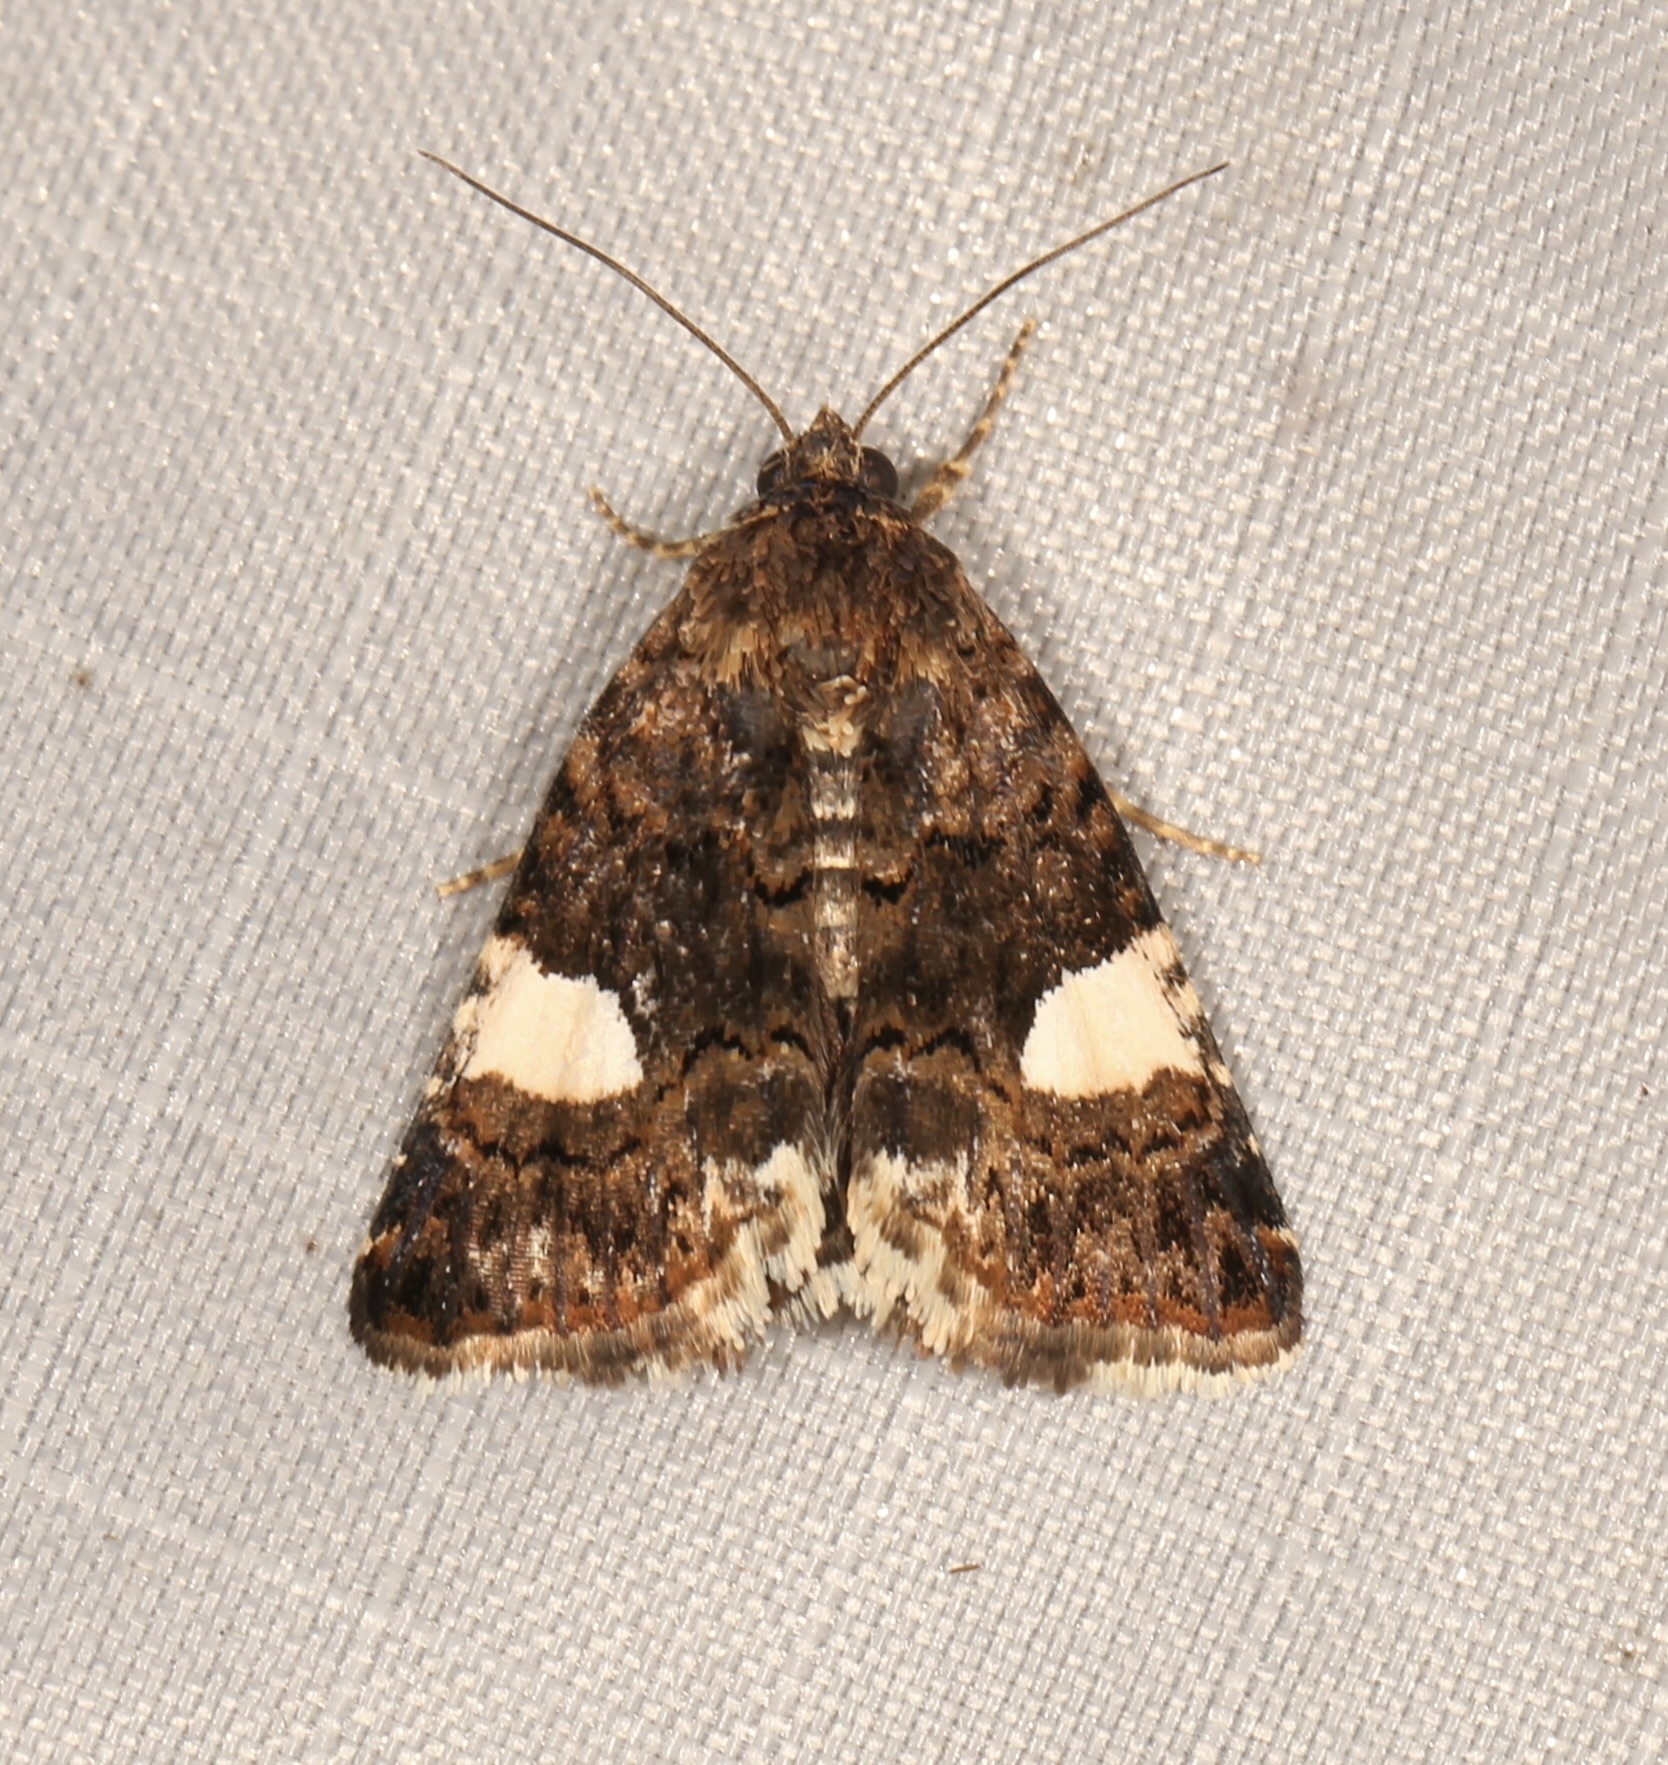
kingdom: Animalia
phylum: Arthropoda
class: Insecta
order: Lepidoptera
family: Erebidae
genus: Tyta
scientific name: Tyta luctuosa
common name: Four-spotted
